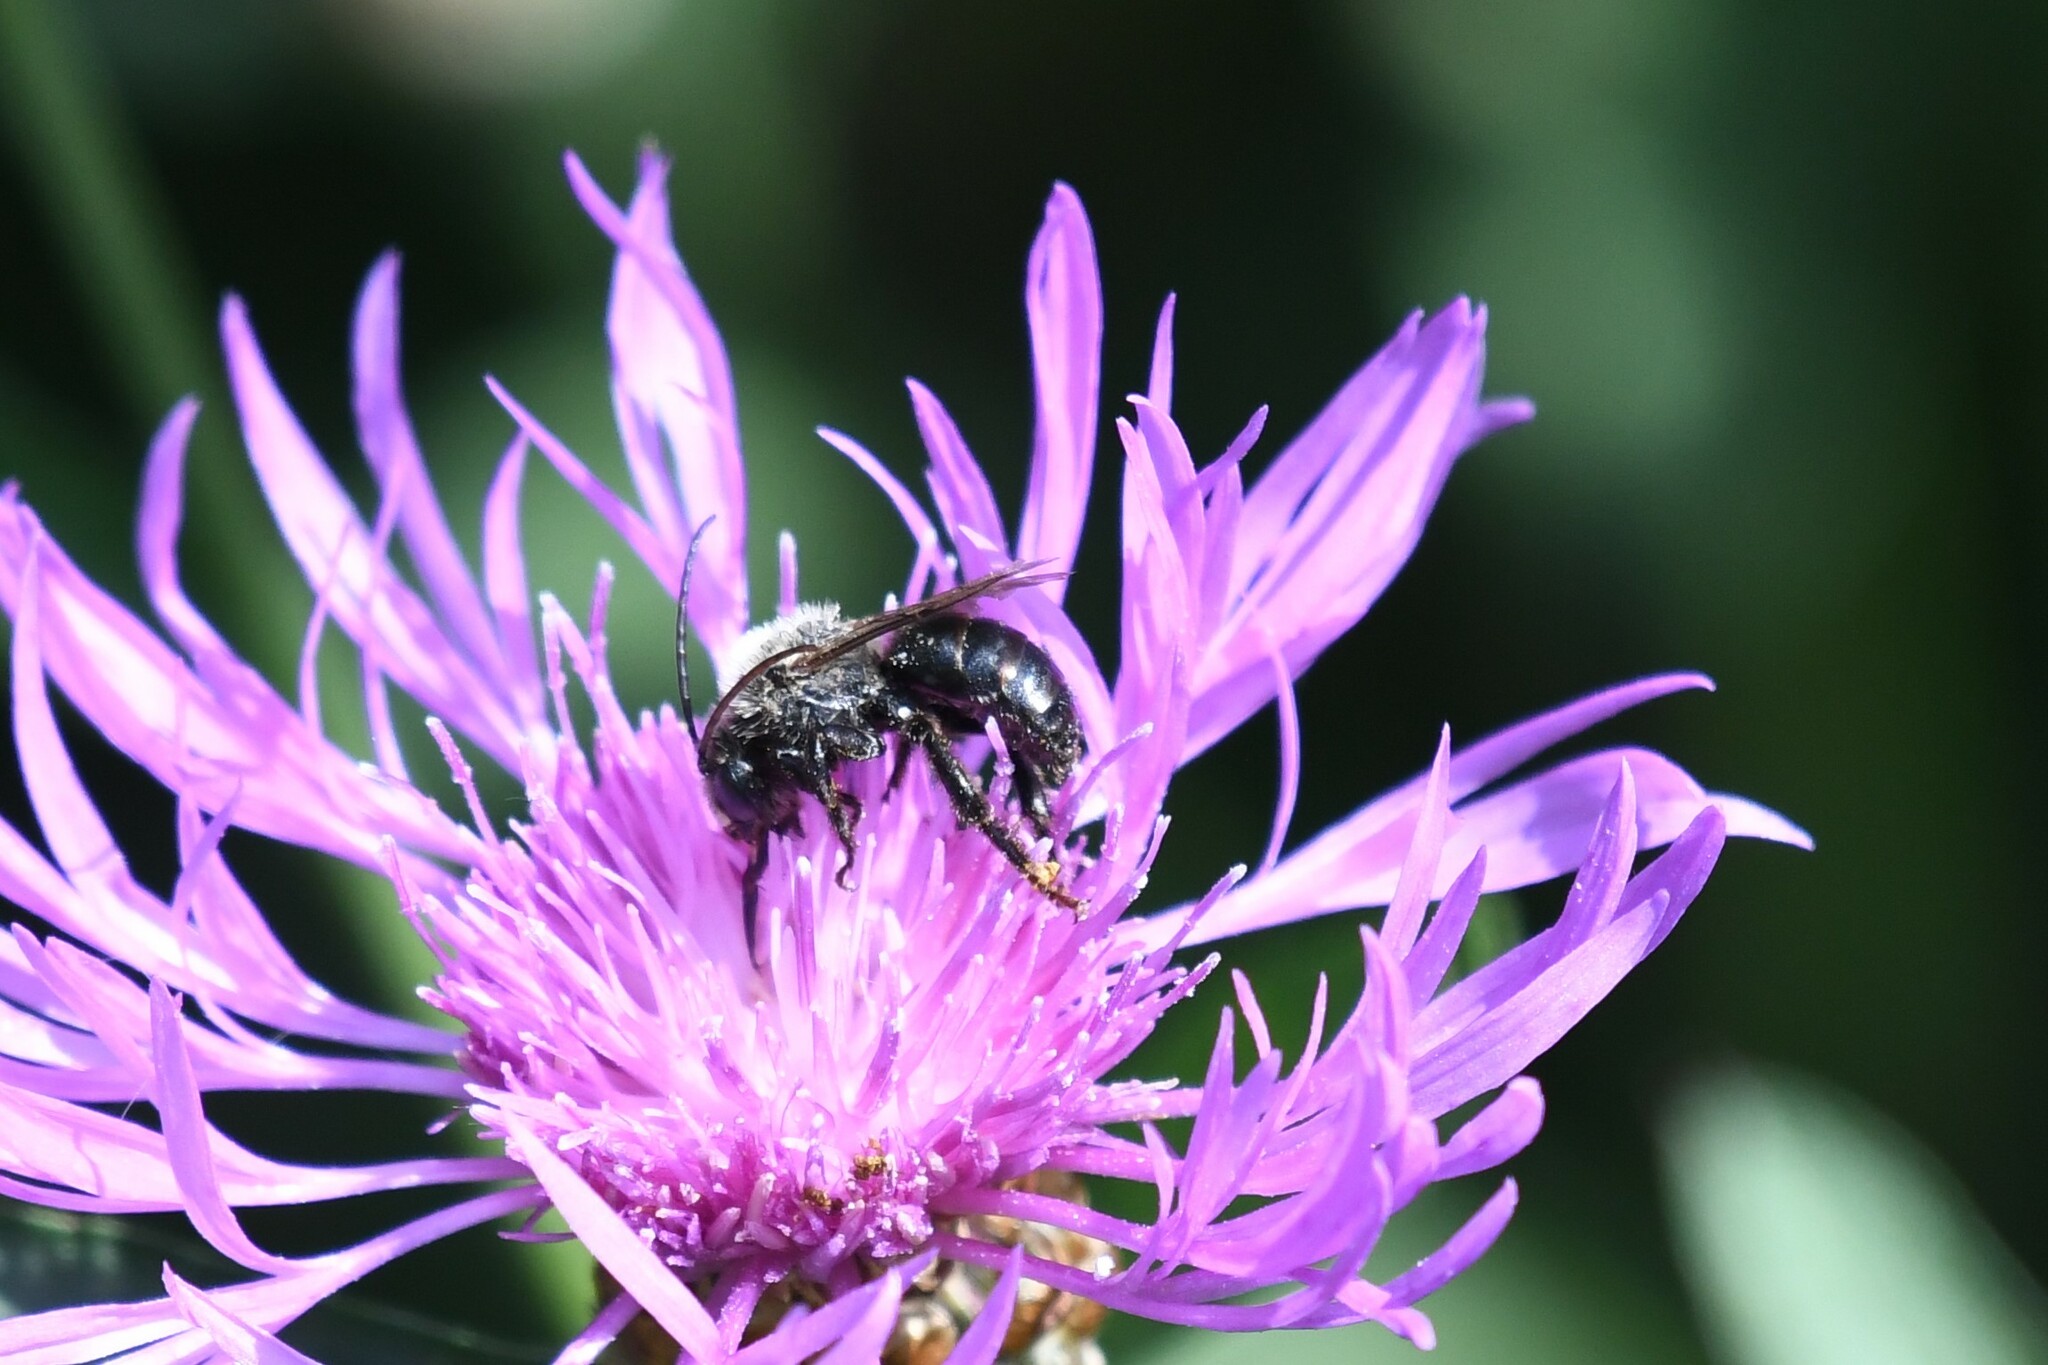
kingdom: Animalia
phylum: Arthropoda
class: Insecta
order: Hymenoptera
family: Apidae
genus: Melissodes
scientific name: Melissodes desponsus
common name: Thistle long-horned bee
